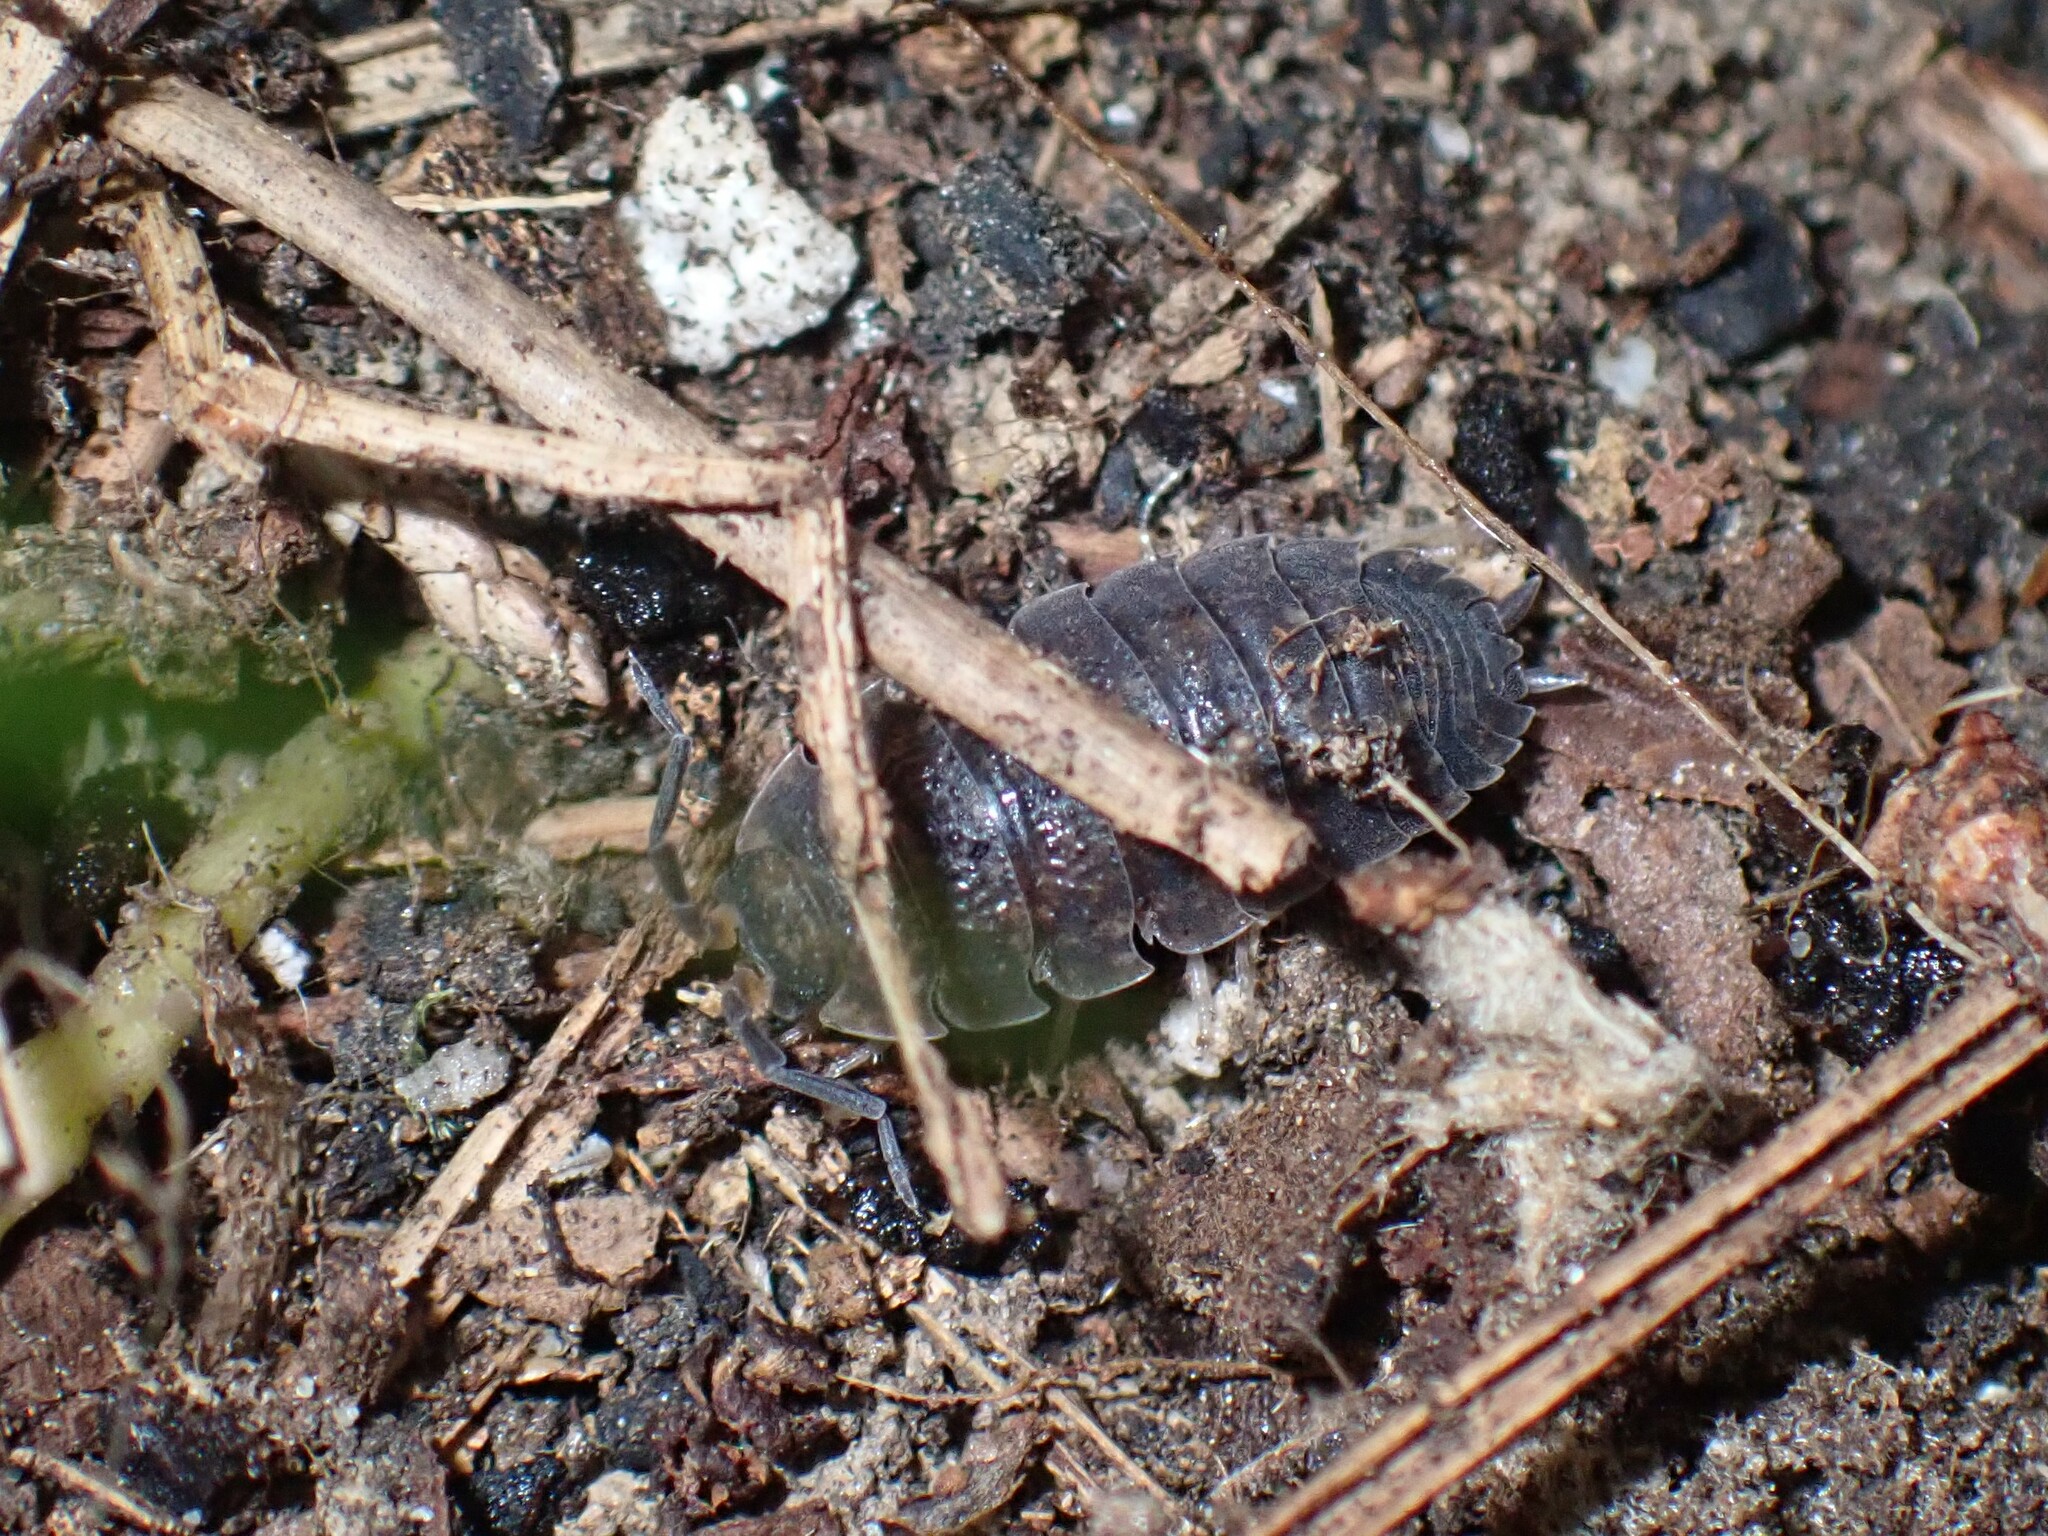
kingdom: Animalia
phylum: Arthropoda
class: Malacostraca
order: Isopoda
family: Porcellionidae
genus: Porcellio
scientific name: Porcellio scaber
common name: Common rough woodlouse
